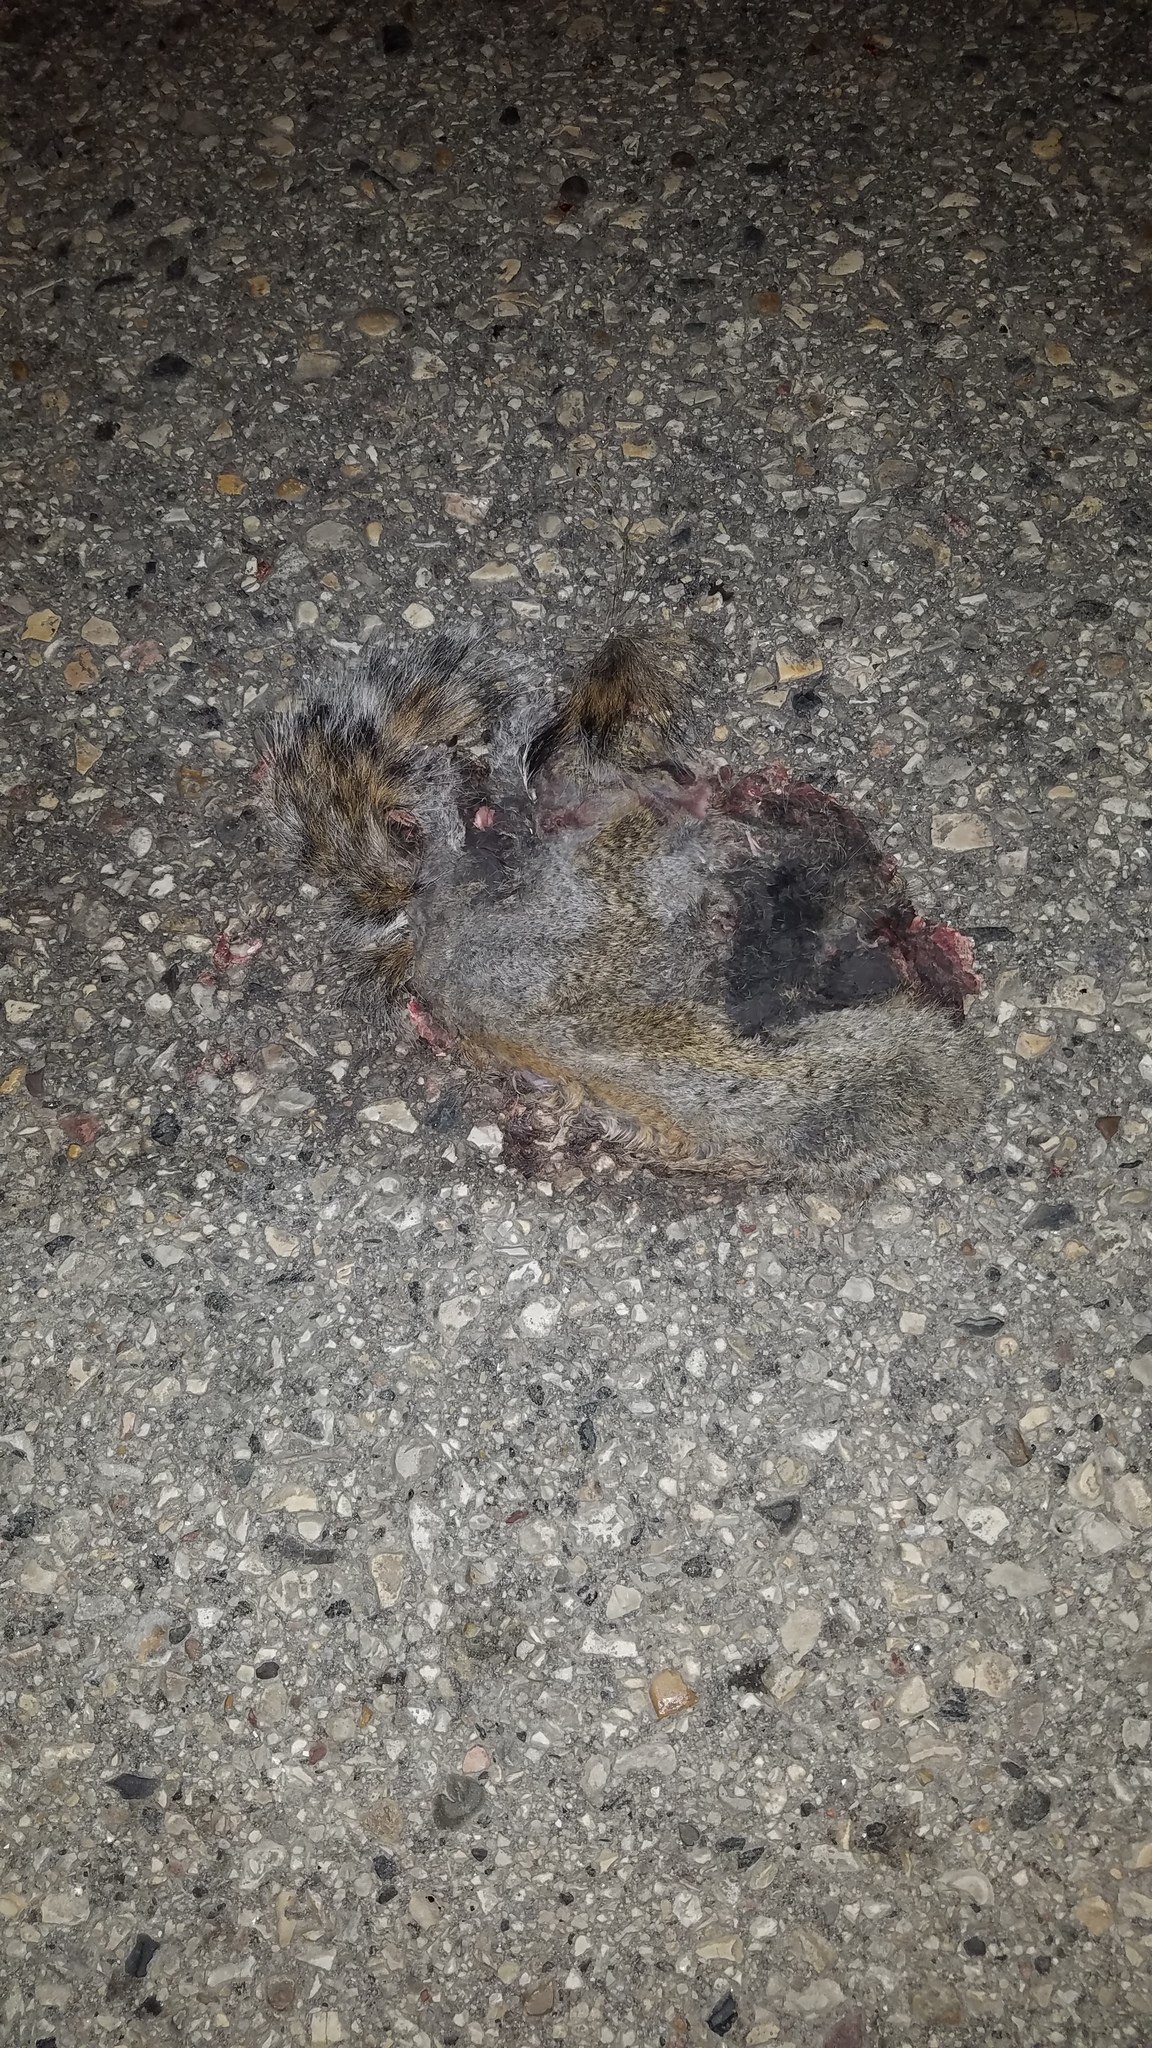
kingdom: Animalia
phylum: Chordata
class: Mammalia
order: Rodentia
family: Sciuridae
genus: Sciurus
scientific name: Sciurus carolinensis
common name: Eastern gray squirrel
